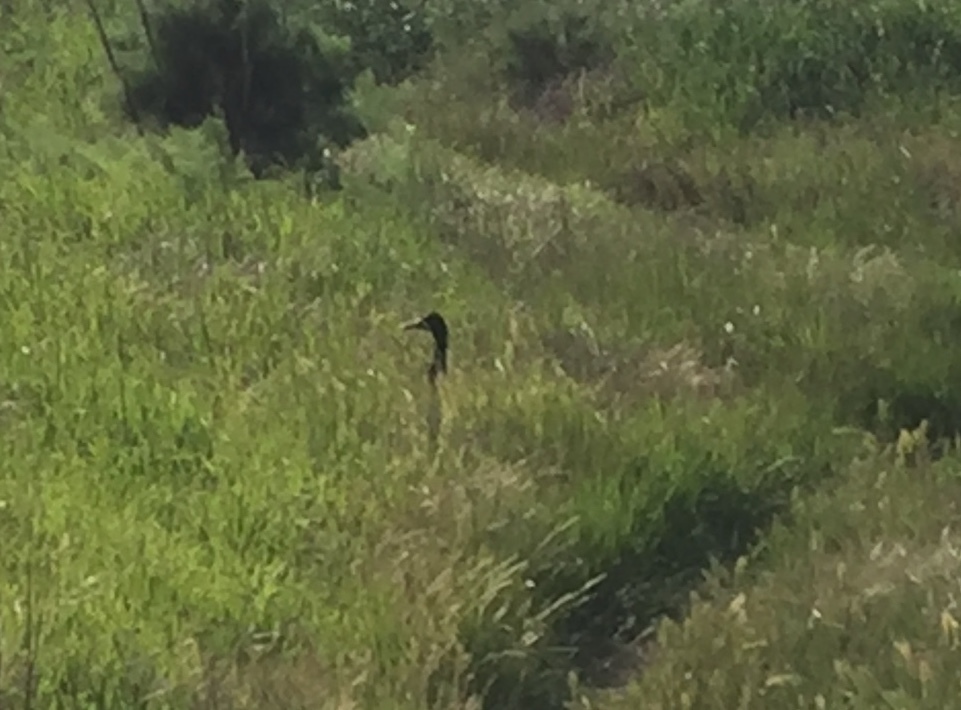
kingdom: Animalia
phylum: Chordata
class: Aves
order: Anseriformes
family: Anatidae
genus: Anas
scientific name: Anas platyrhynchos
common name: Mallard
